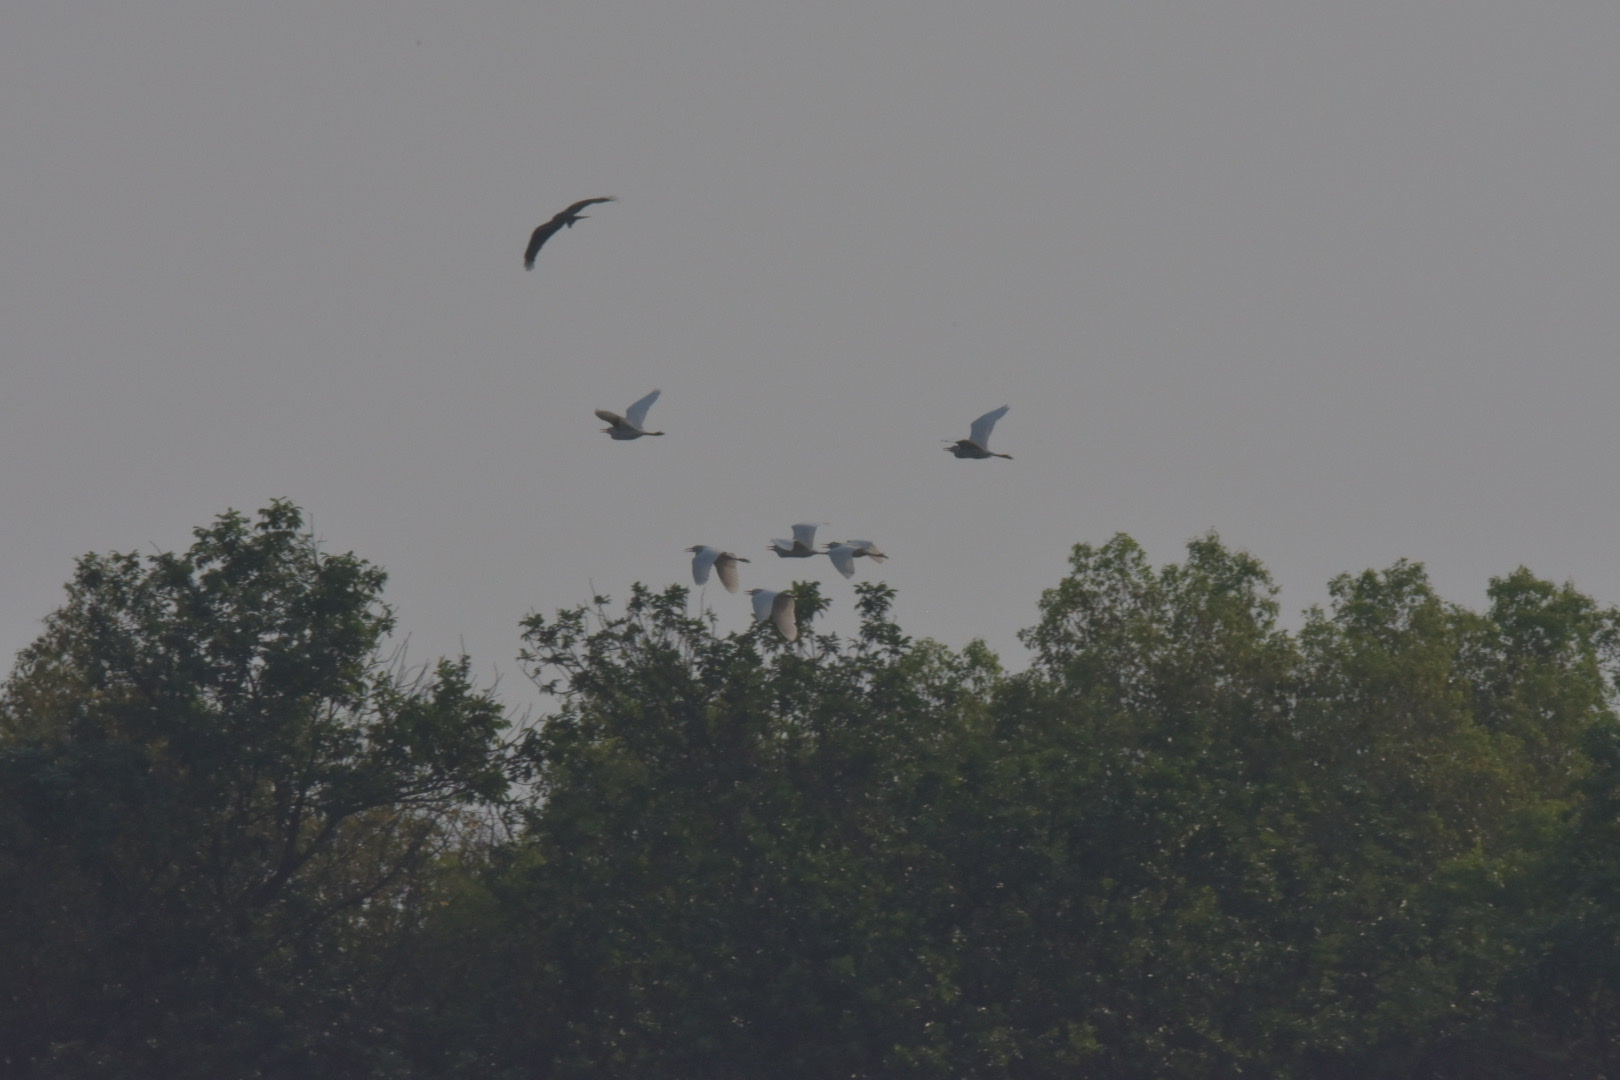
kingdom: Animalia
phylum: Chordata
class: Aves
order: Pelecaniformes
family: Ardeidae
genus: Bubulcus
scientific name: Bubulcus ibis
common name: Cattle egret
